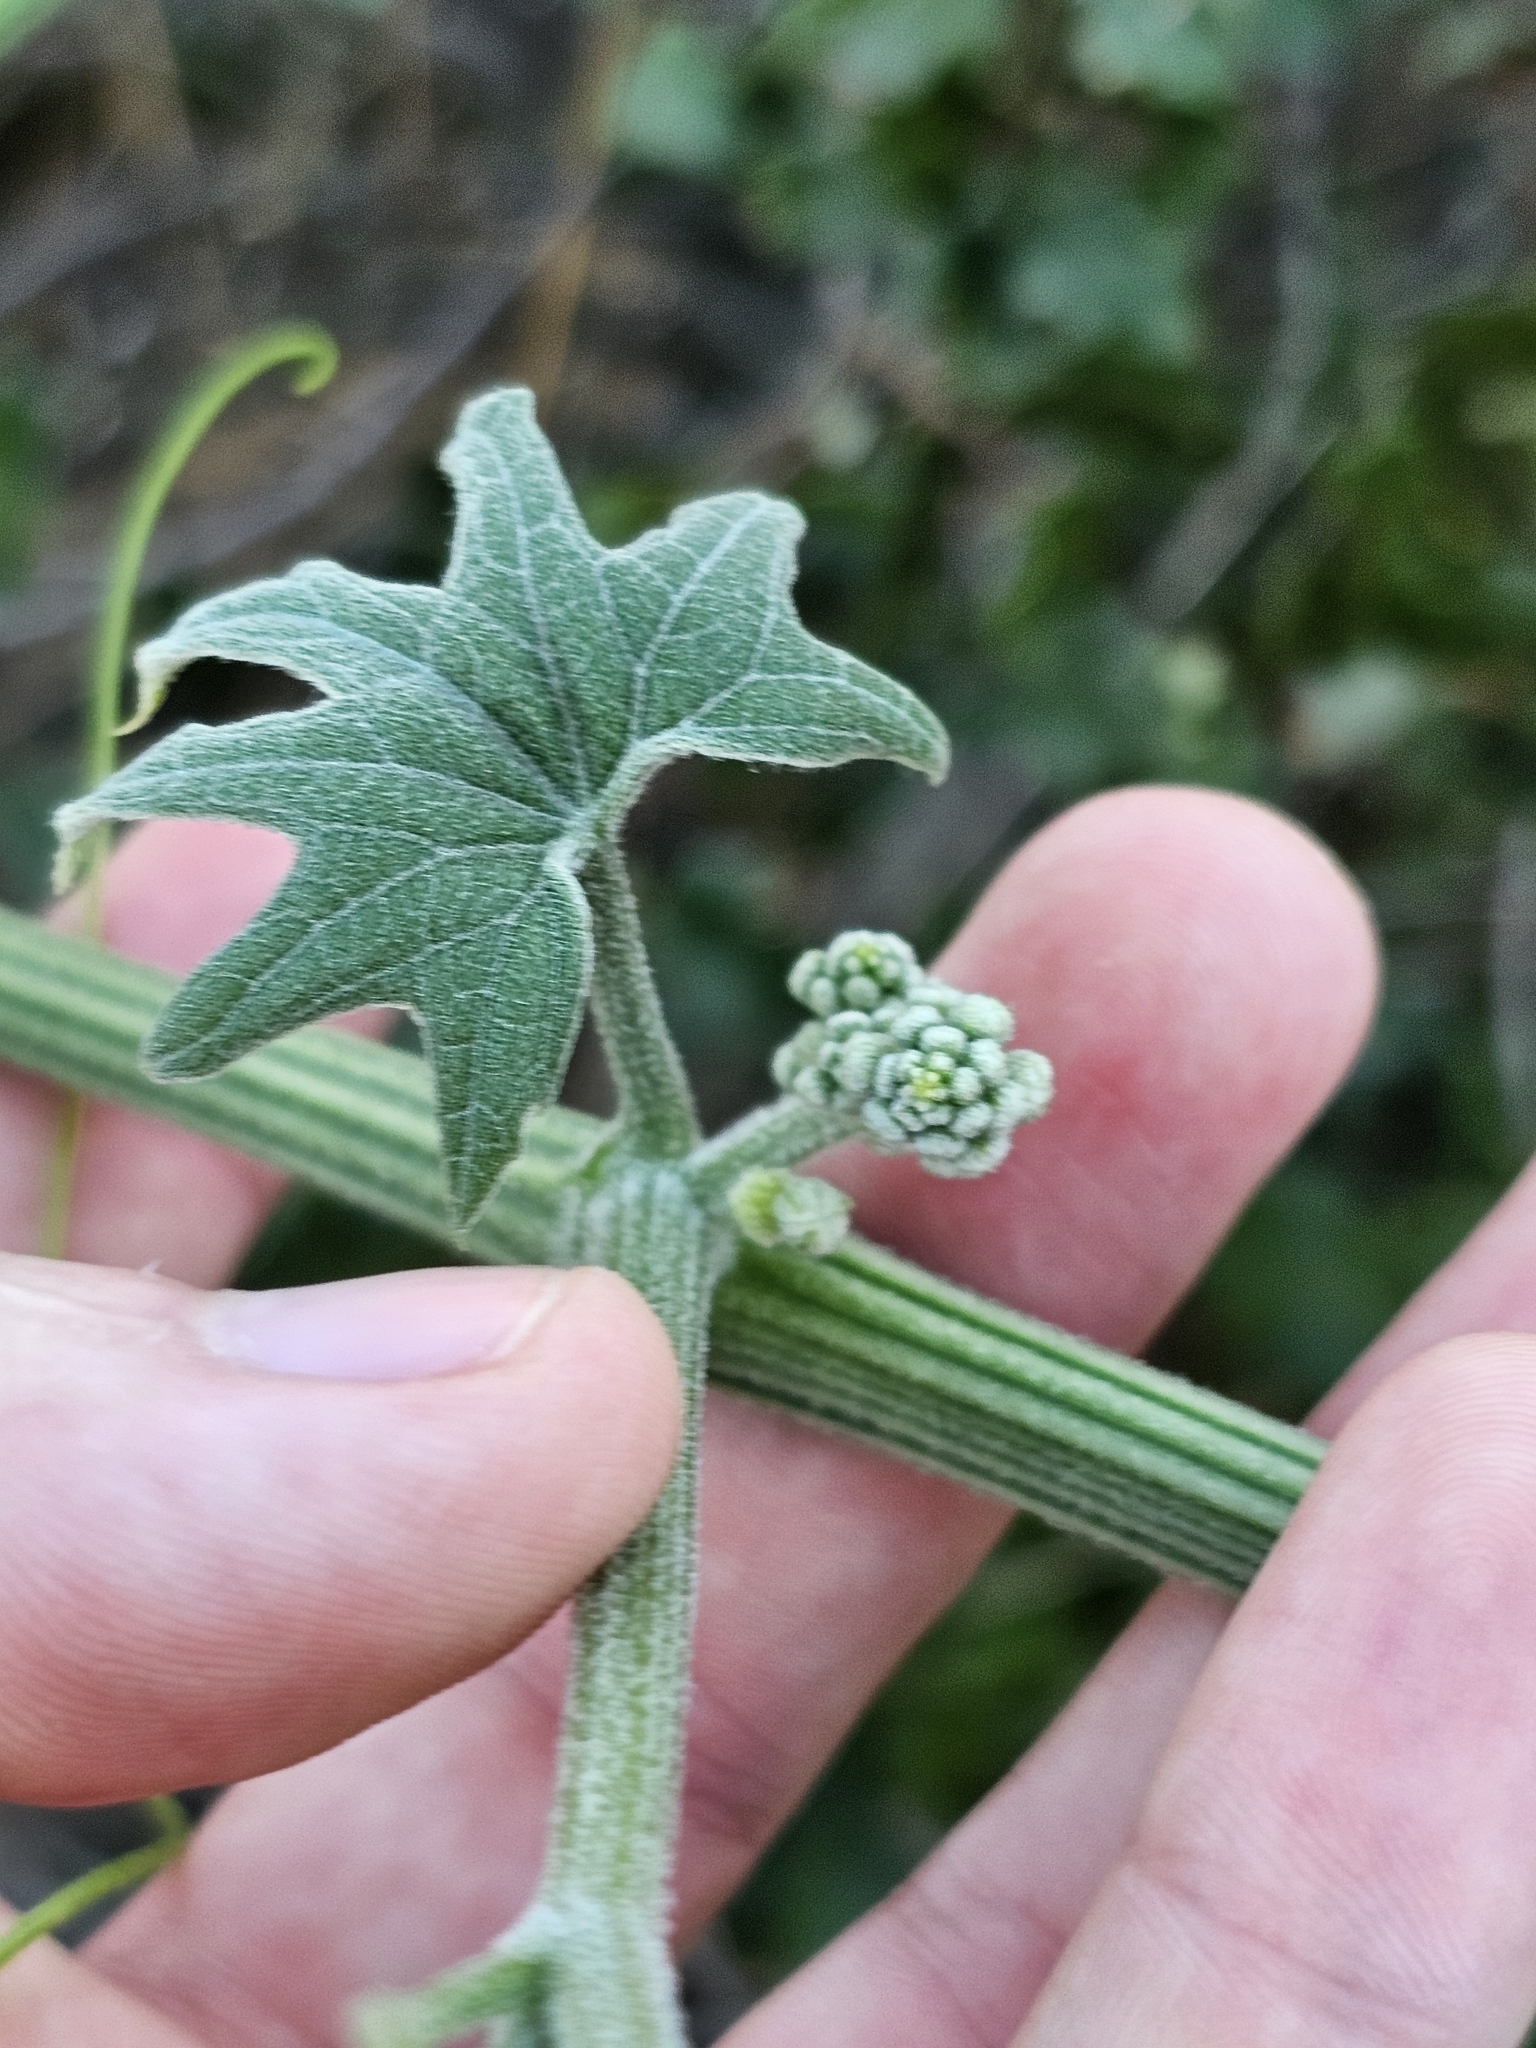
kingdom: Plantae
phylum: Tracheophyta
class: Magnoliopsida
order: Cucurbitales
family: Cucurbitaceae
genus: Marah
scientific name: Marah macrocarpa
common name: Cucamonga manroot
